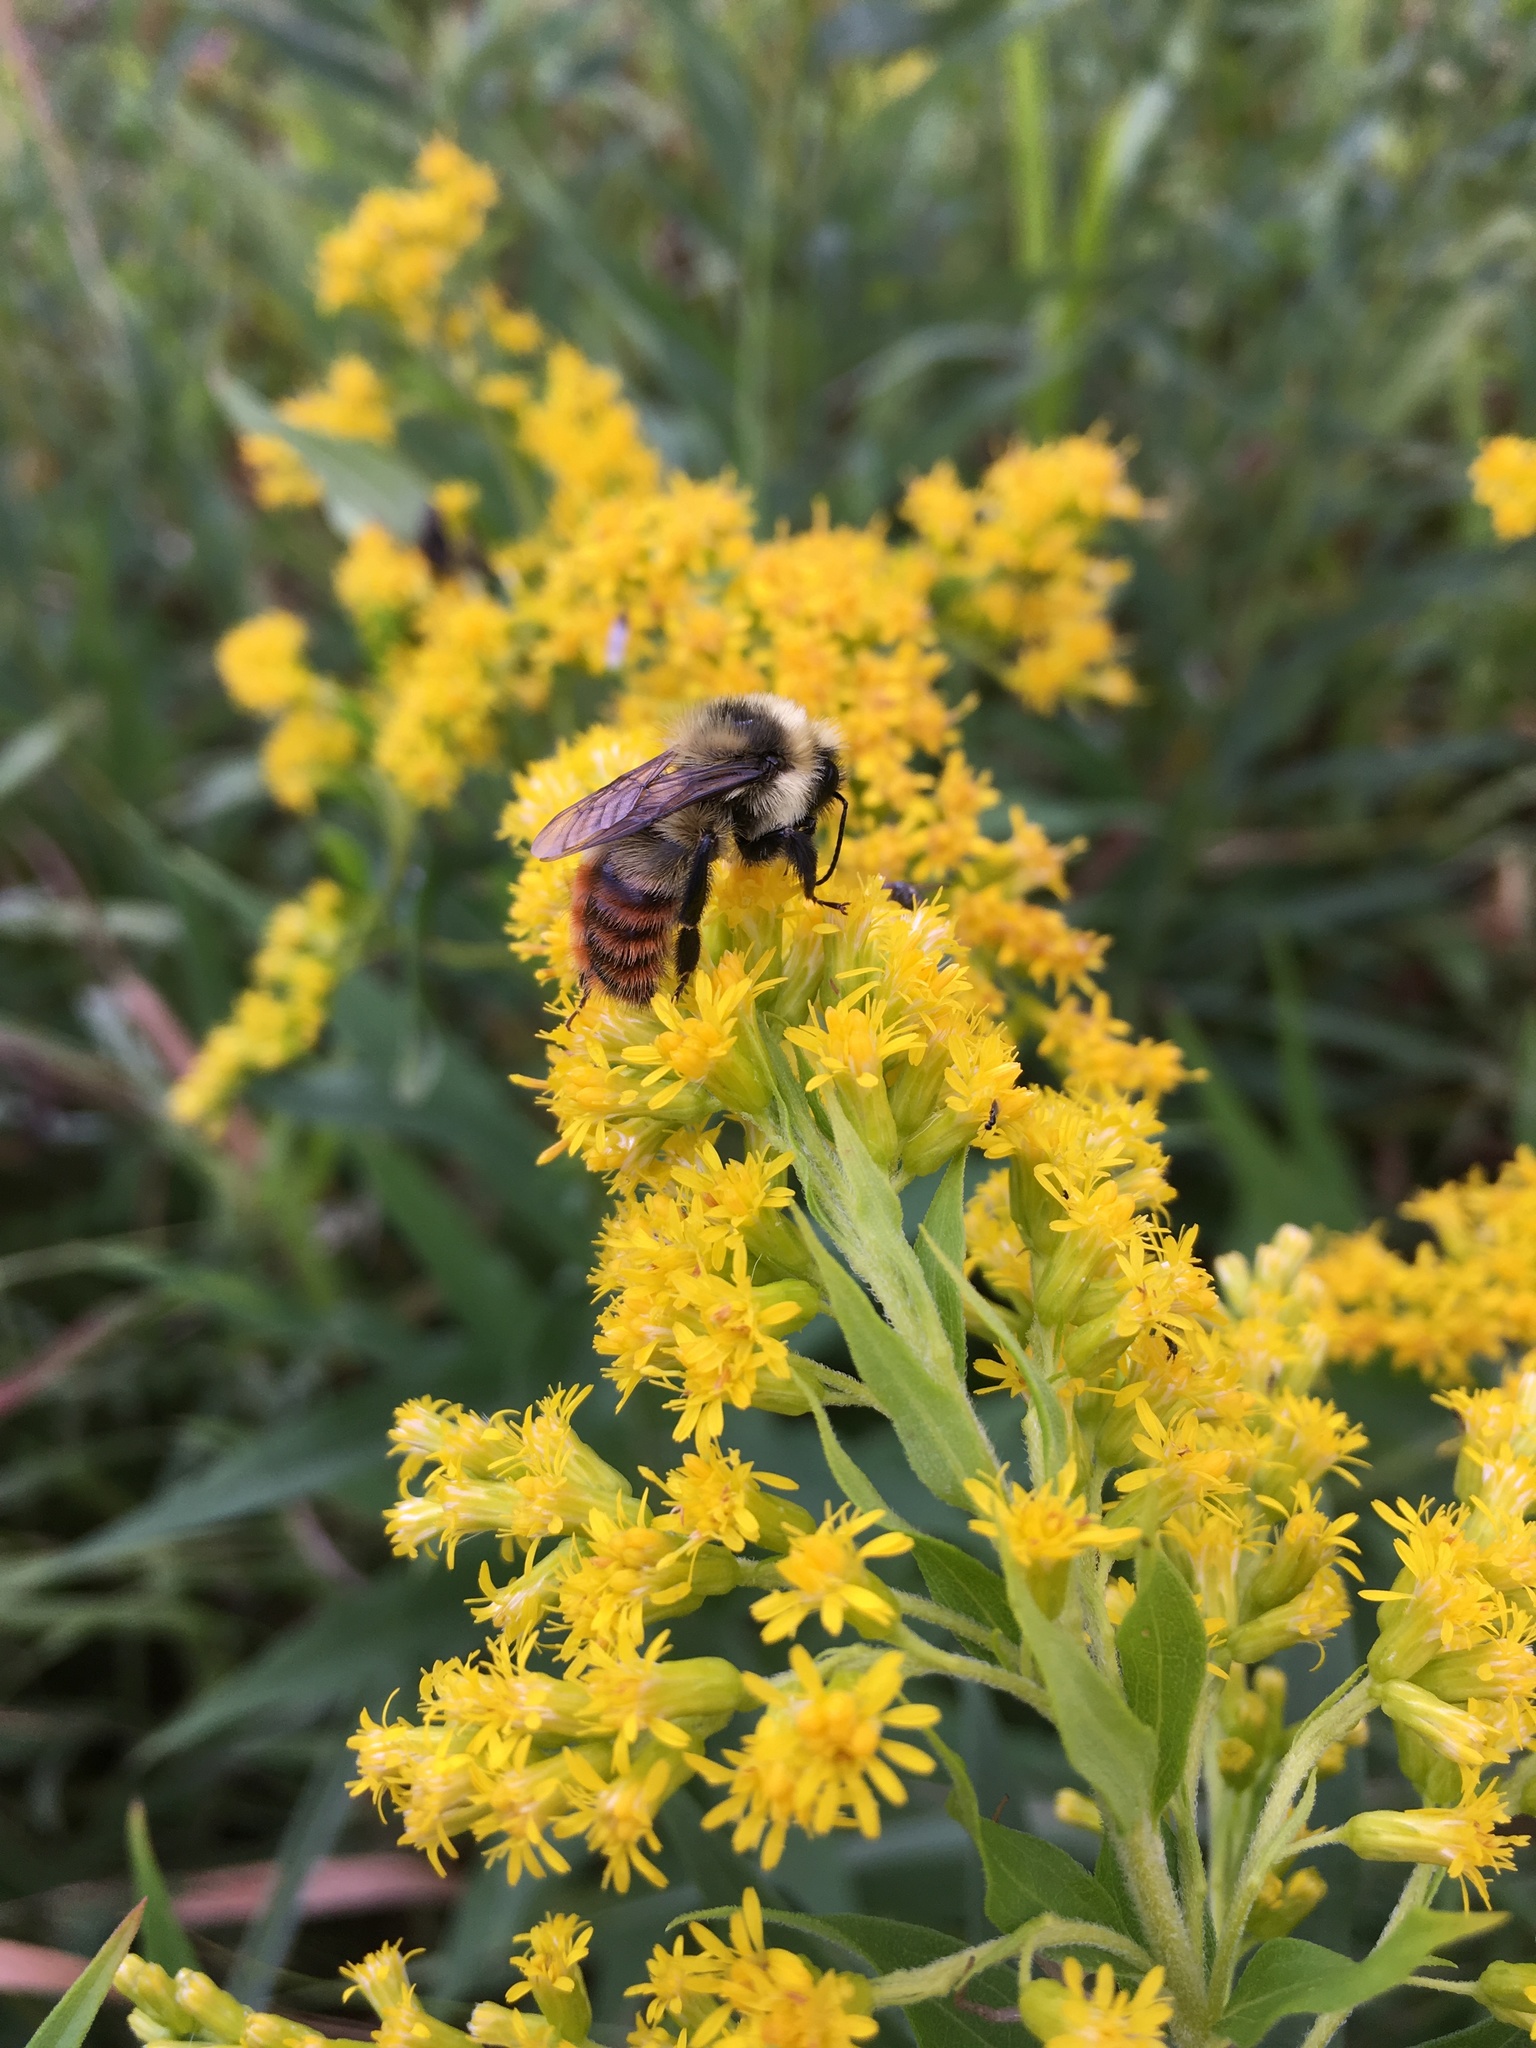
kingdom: Animalia
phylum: Arthropoda
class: Insecta
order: Hymenoptera
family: Apidae
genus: Bombus
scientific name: Bombus rufocinctus
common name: Red-belted bumble bee
